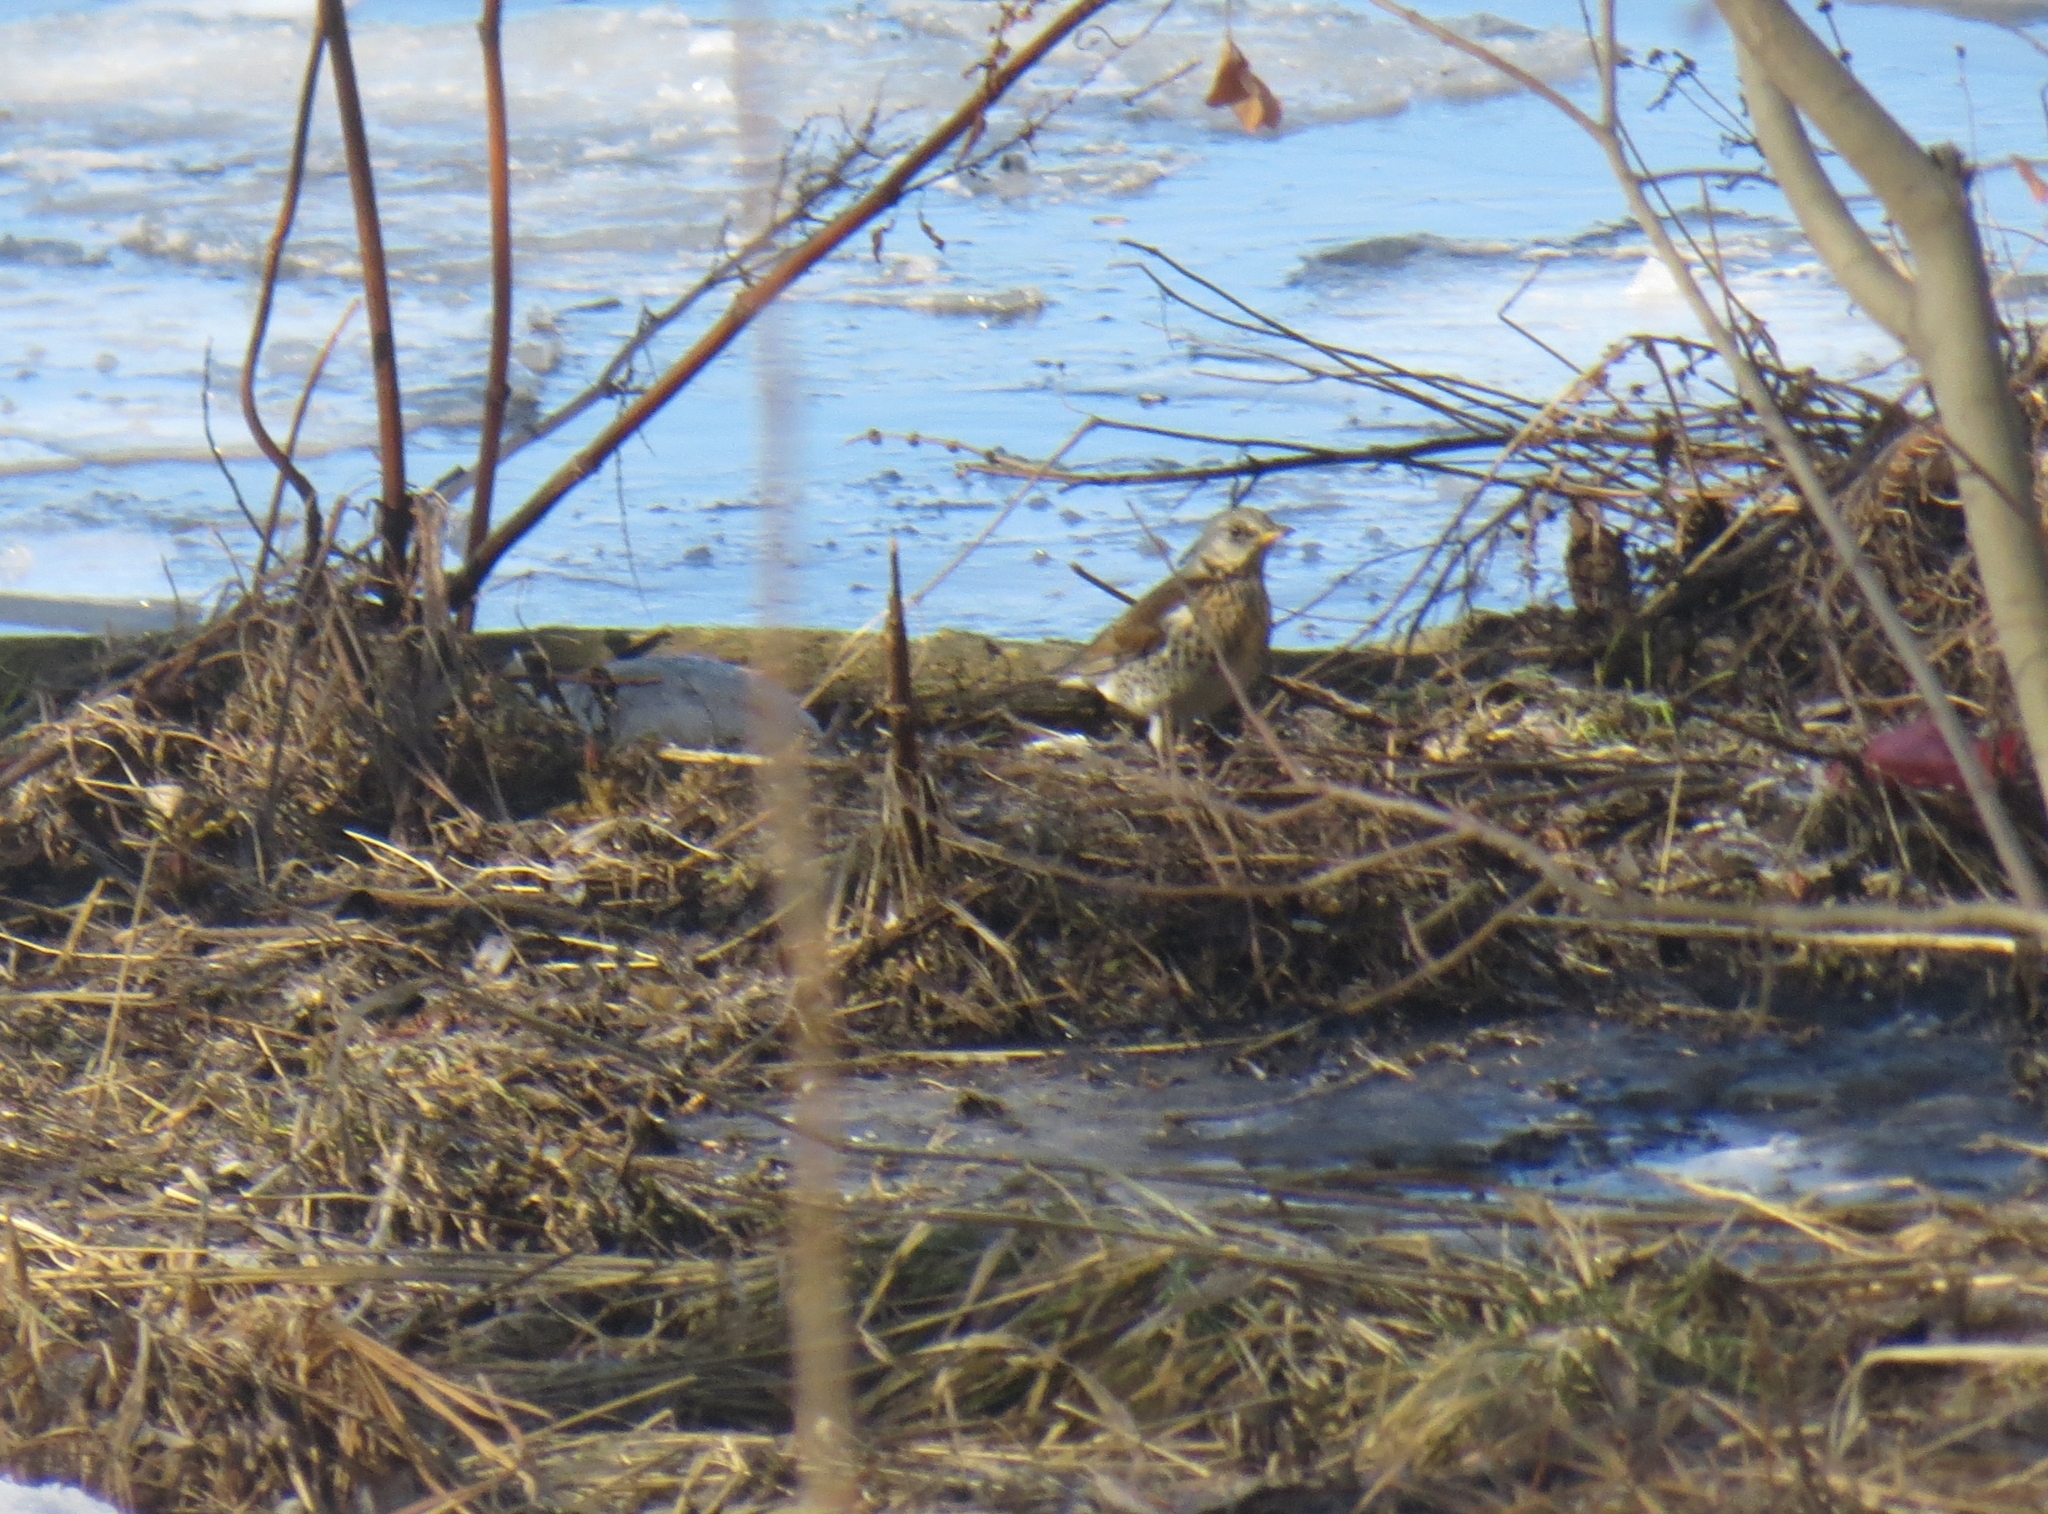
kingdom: Animalia
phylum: Chordata
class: Aves
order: Passeriformes
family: Turdidae
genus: Turdus
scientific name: Turdus pilaris
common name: Fieldfare
